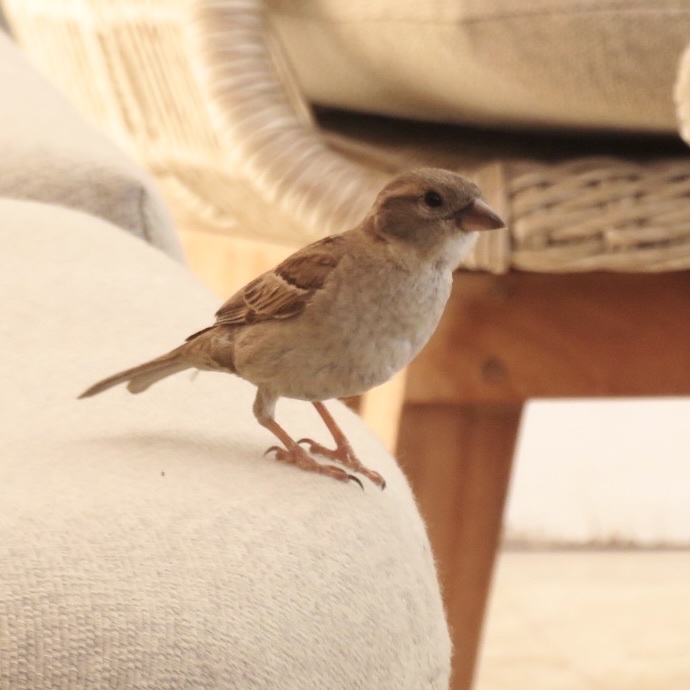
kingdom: Animalia
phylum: Chordata
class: Aves
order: Passeriformes
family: Passeridae
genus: Passer
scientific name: Passer domesticus
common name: House sparrow
